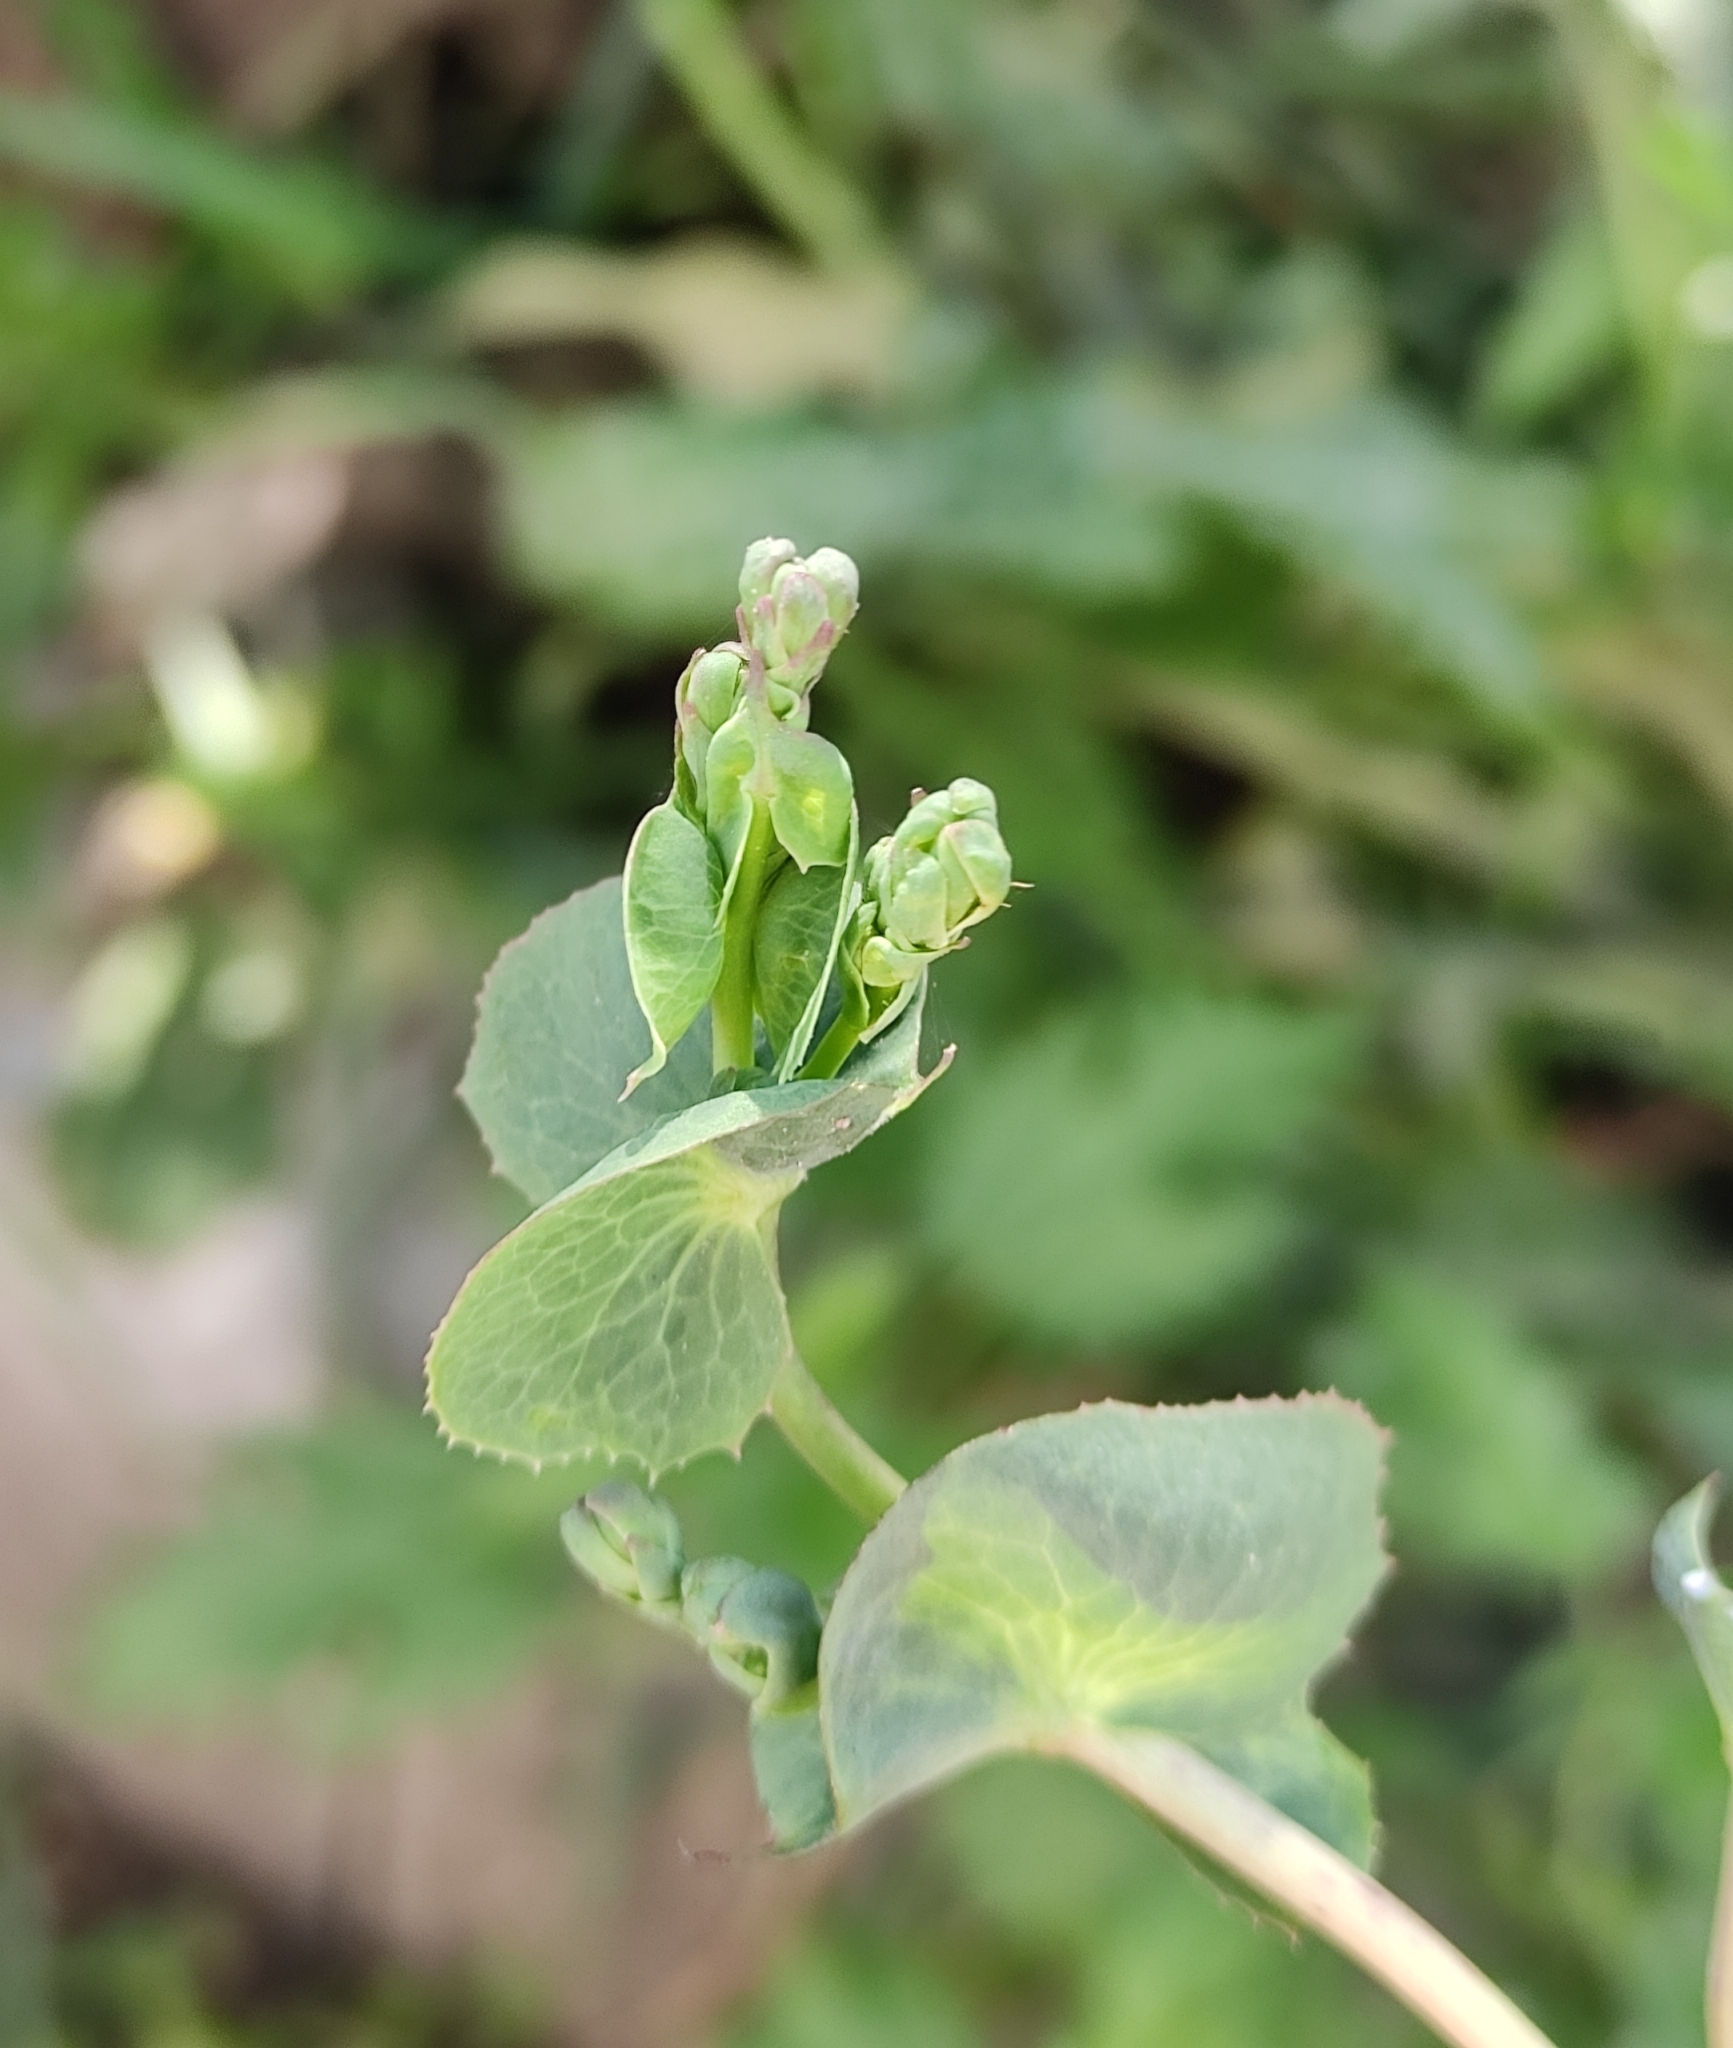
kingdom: Plantae
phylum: Tracheophyta
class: Magnoliopsida
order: Fabales
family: Fabaceae
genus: Lathyrus
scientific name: Lathyrus oleraceus
